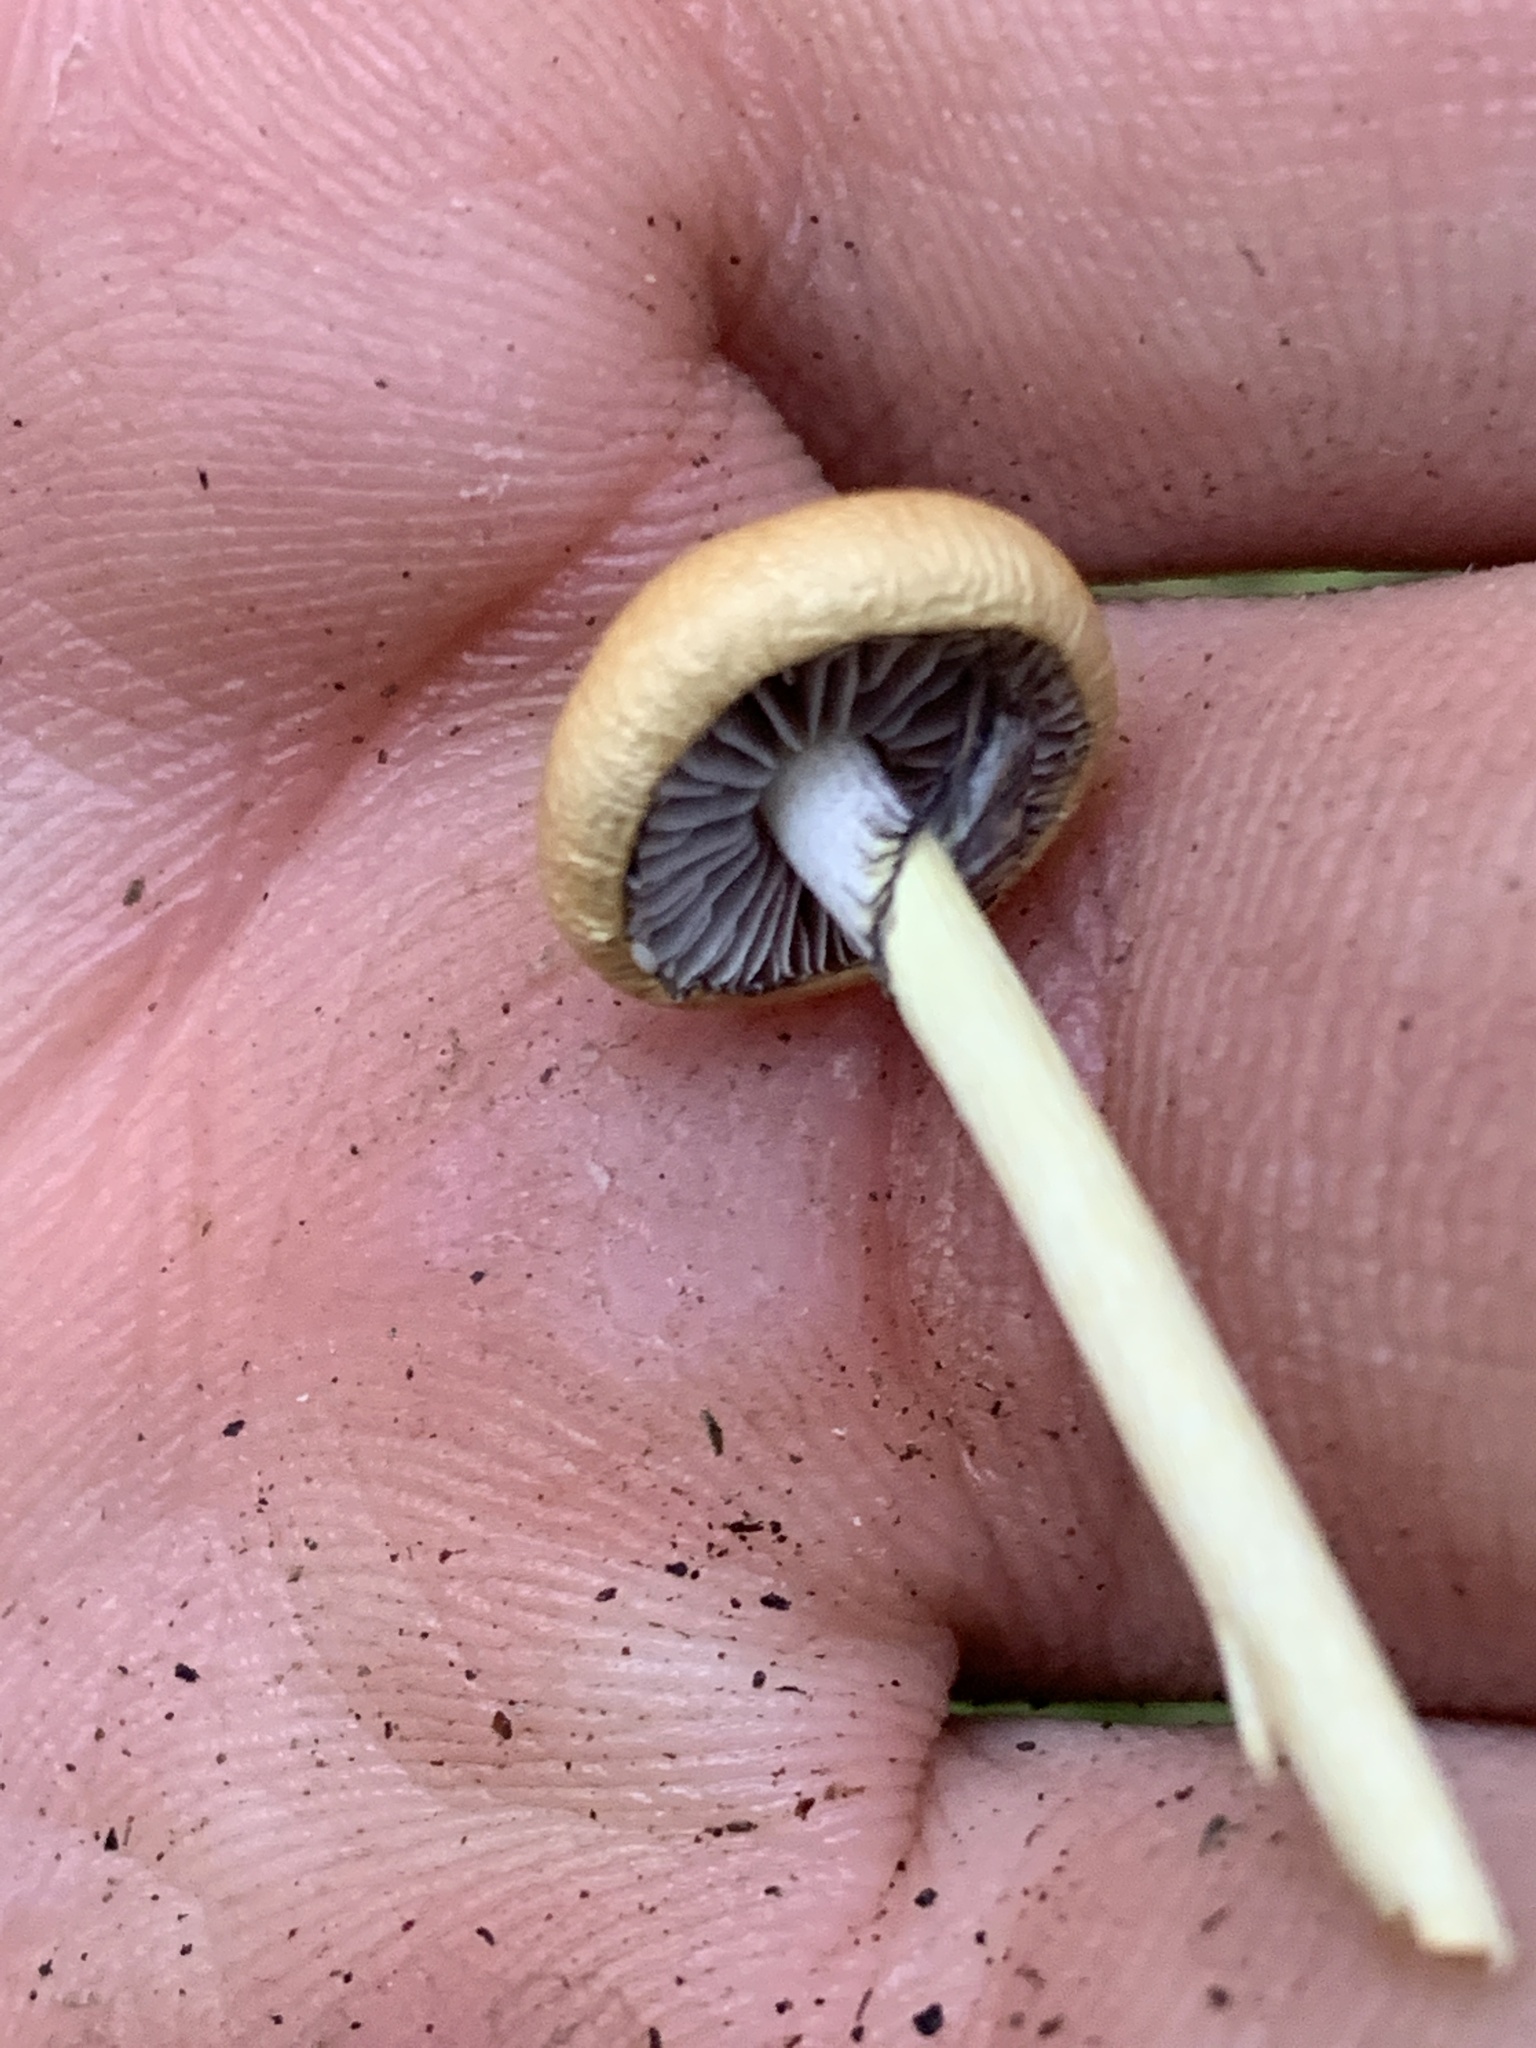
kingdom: Fungi
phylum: Basidiomycota
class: Agaricomycetes
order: Agaricales
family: Strophariaceae
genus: Protostropharia
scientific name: Protostropharia alcis
